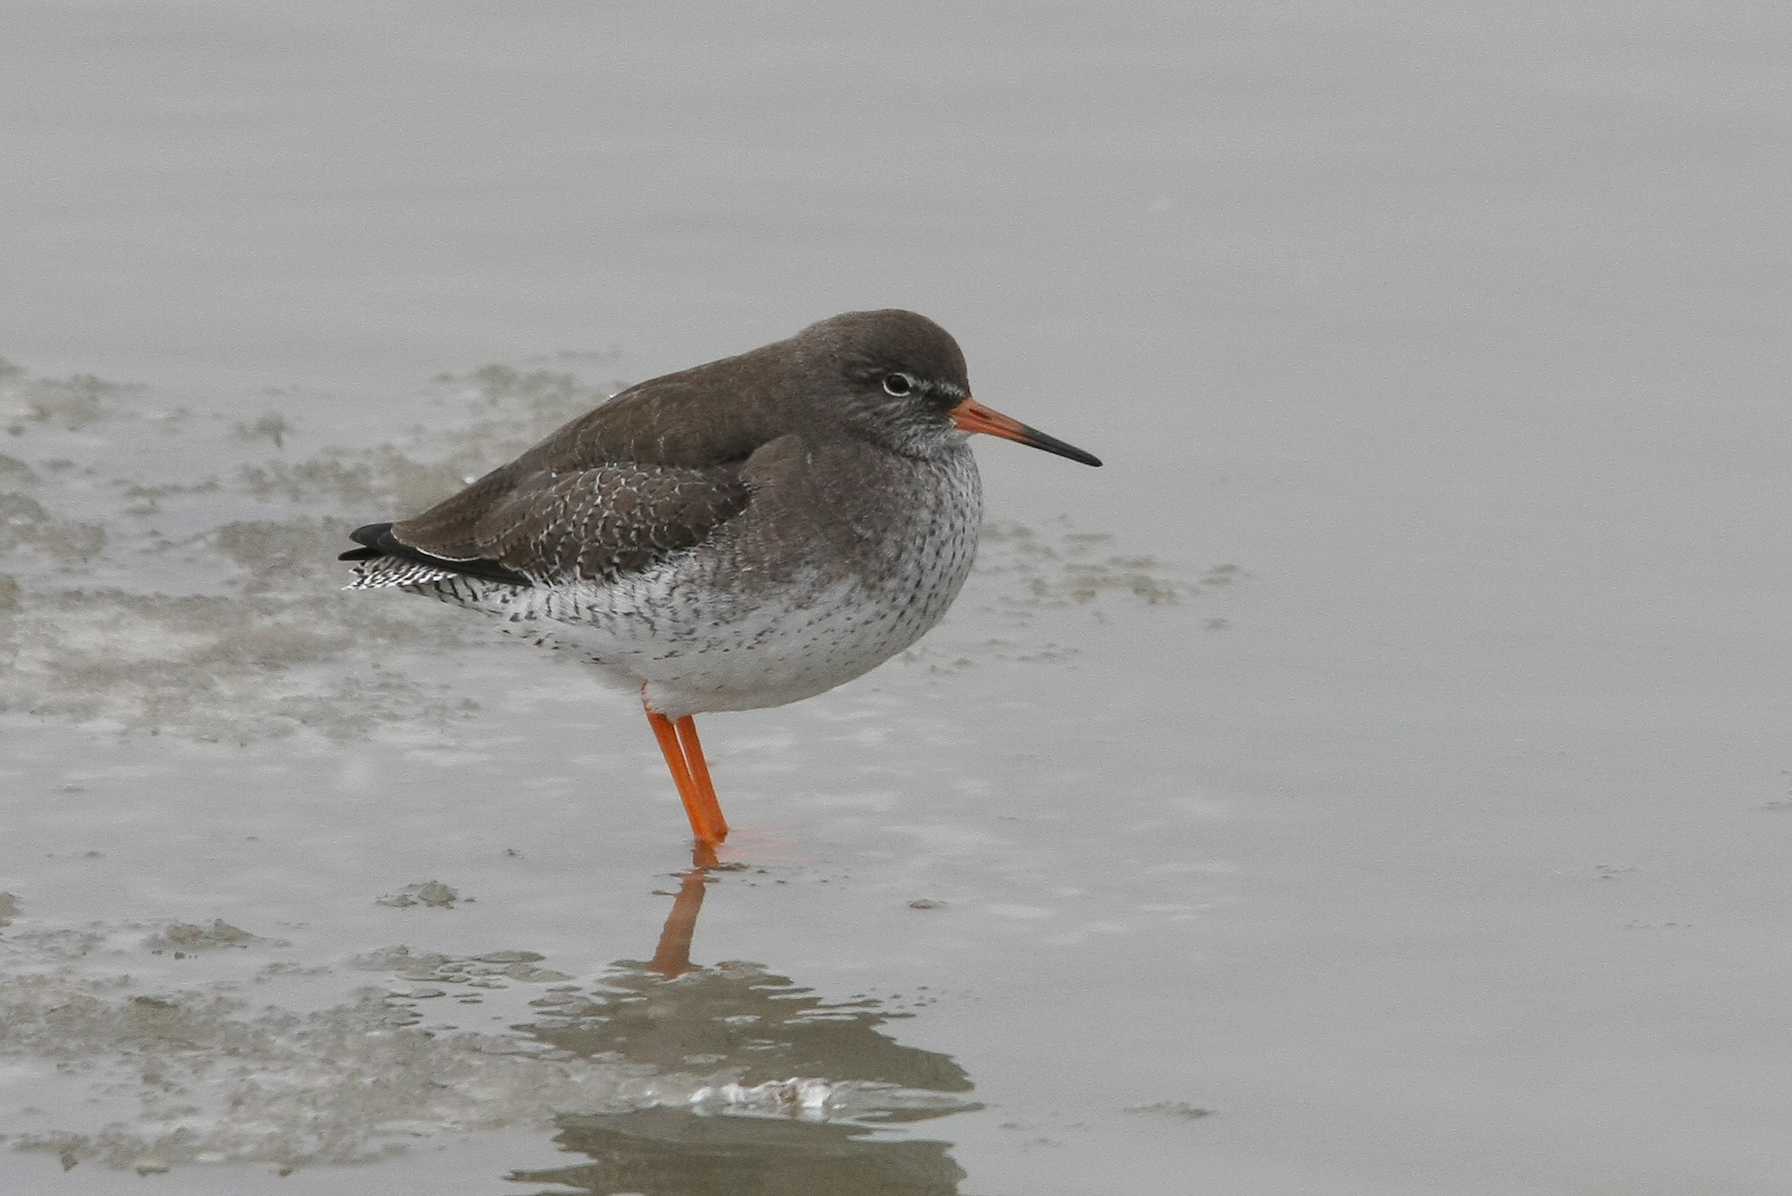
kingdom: Animalia
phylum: Chordata
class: Aves
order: Charadriiformes
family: Scolopacidae
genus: Tringa
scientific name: Tringa totanus
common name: Common redshank
